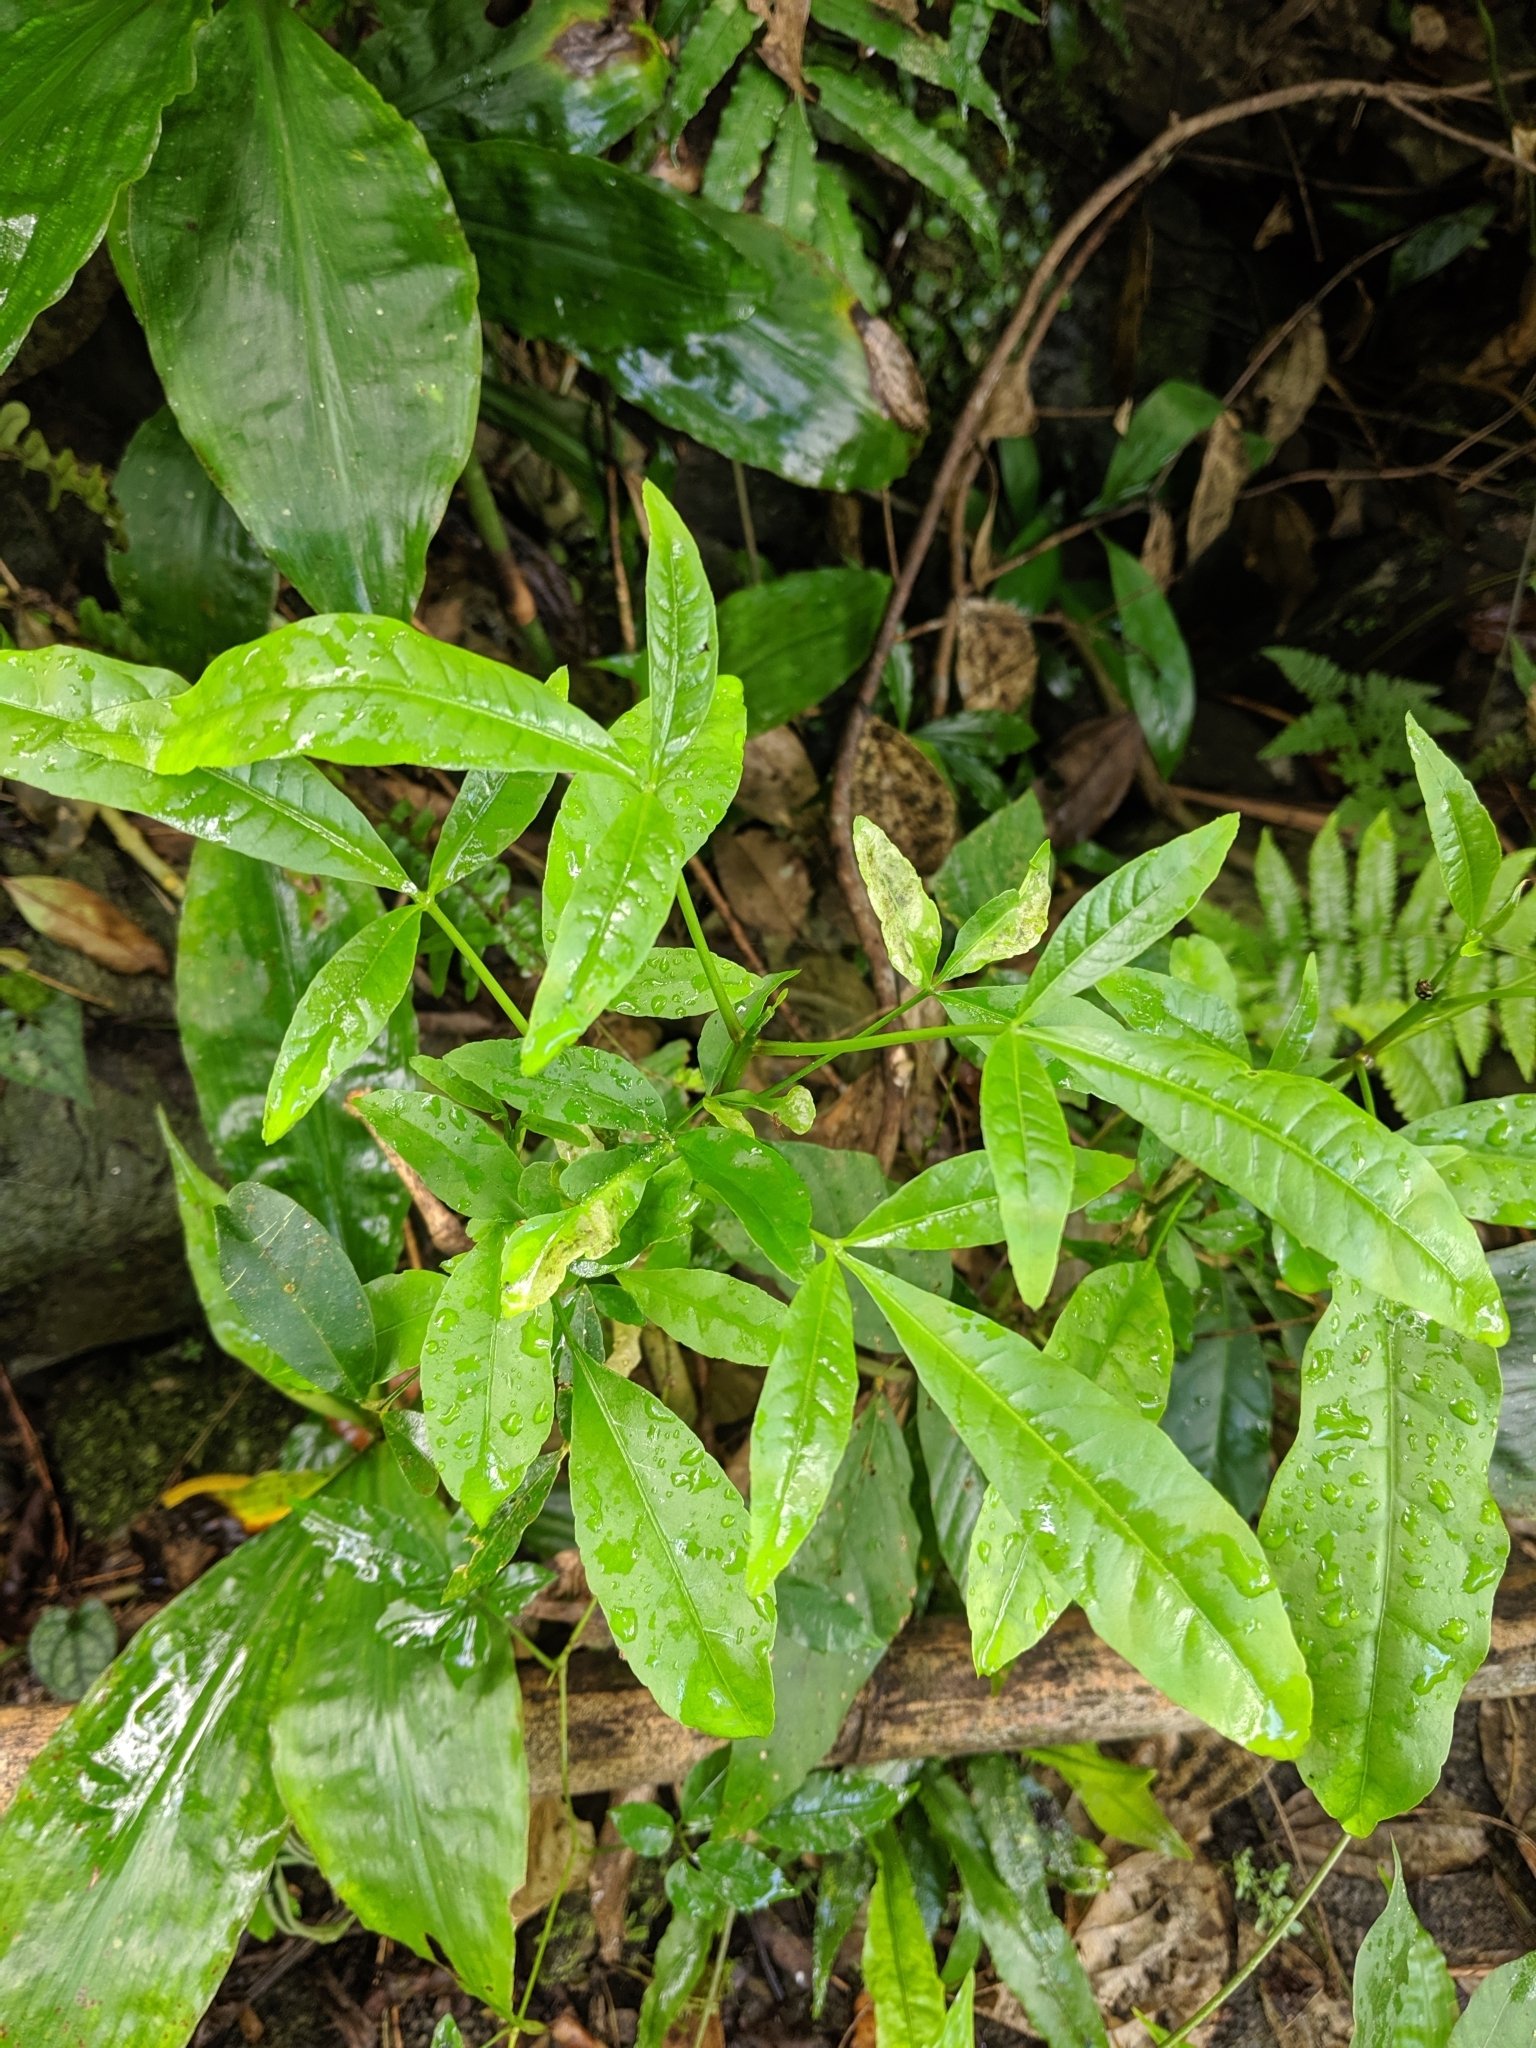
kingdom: Plantae
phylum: Tracheophyta
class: Magnoliopsida
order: Brassicales
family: Capparaceae
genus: Crateva
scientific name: Crateva formosensis
